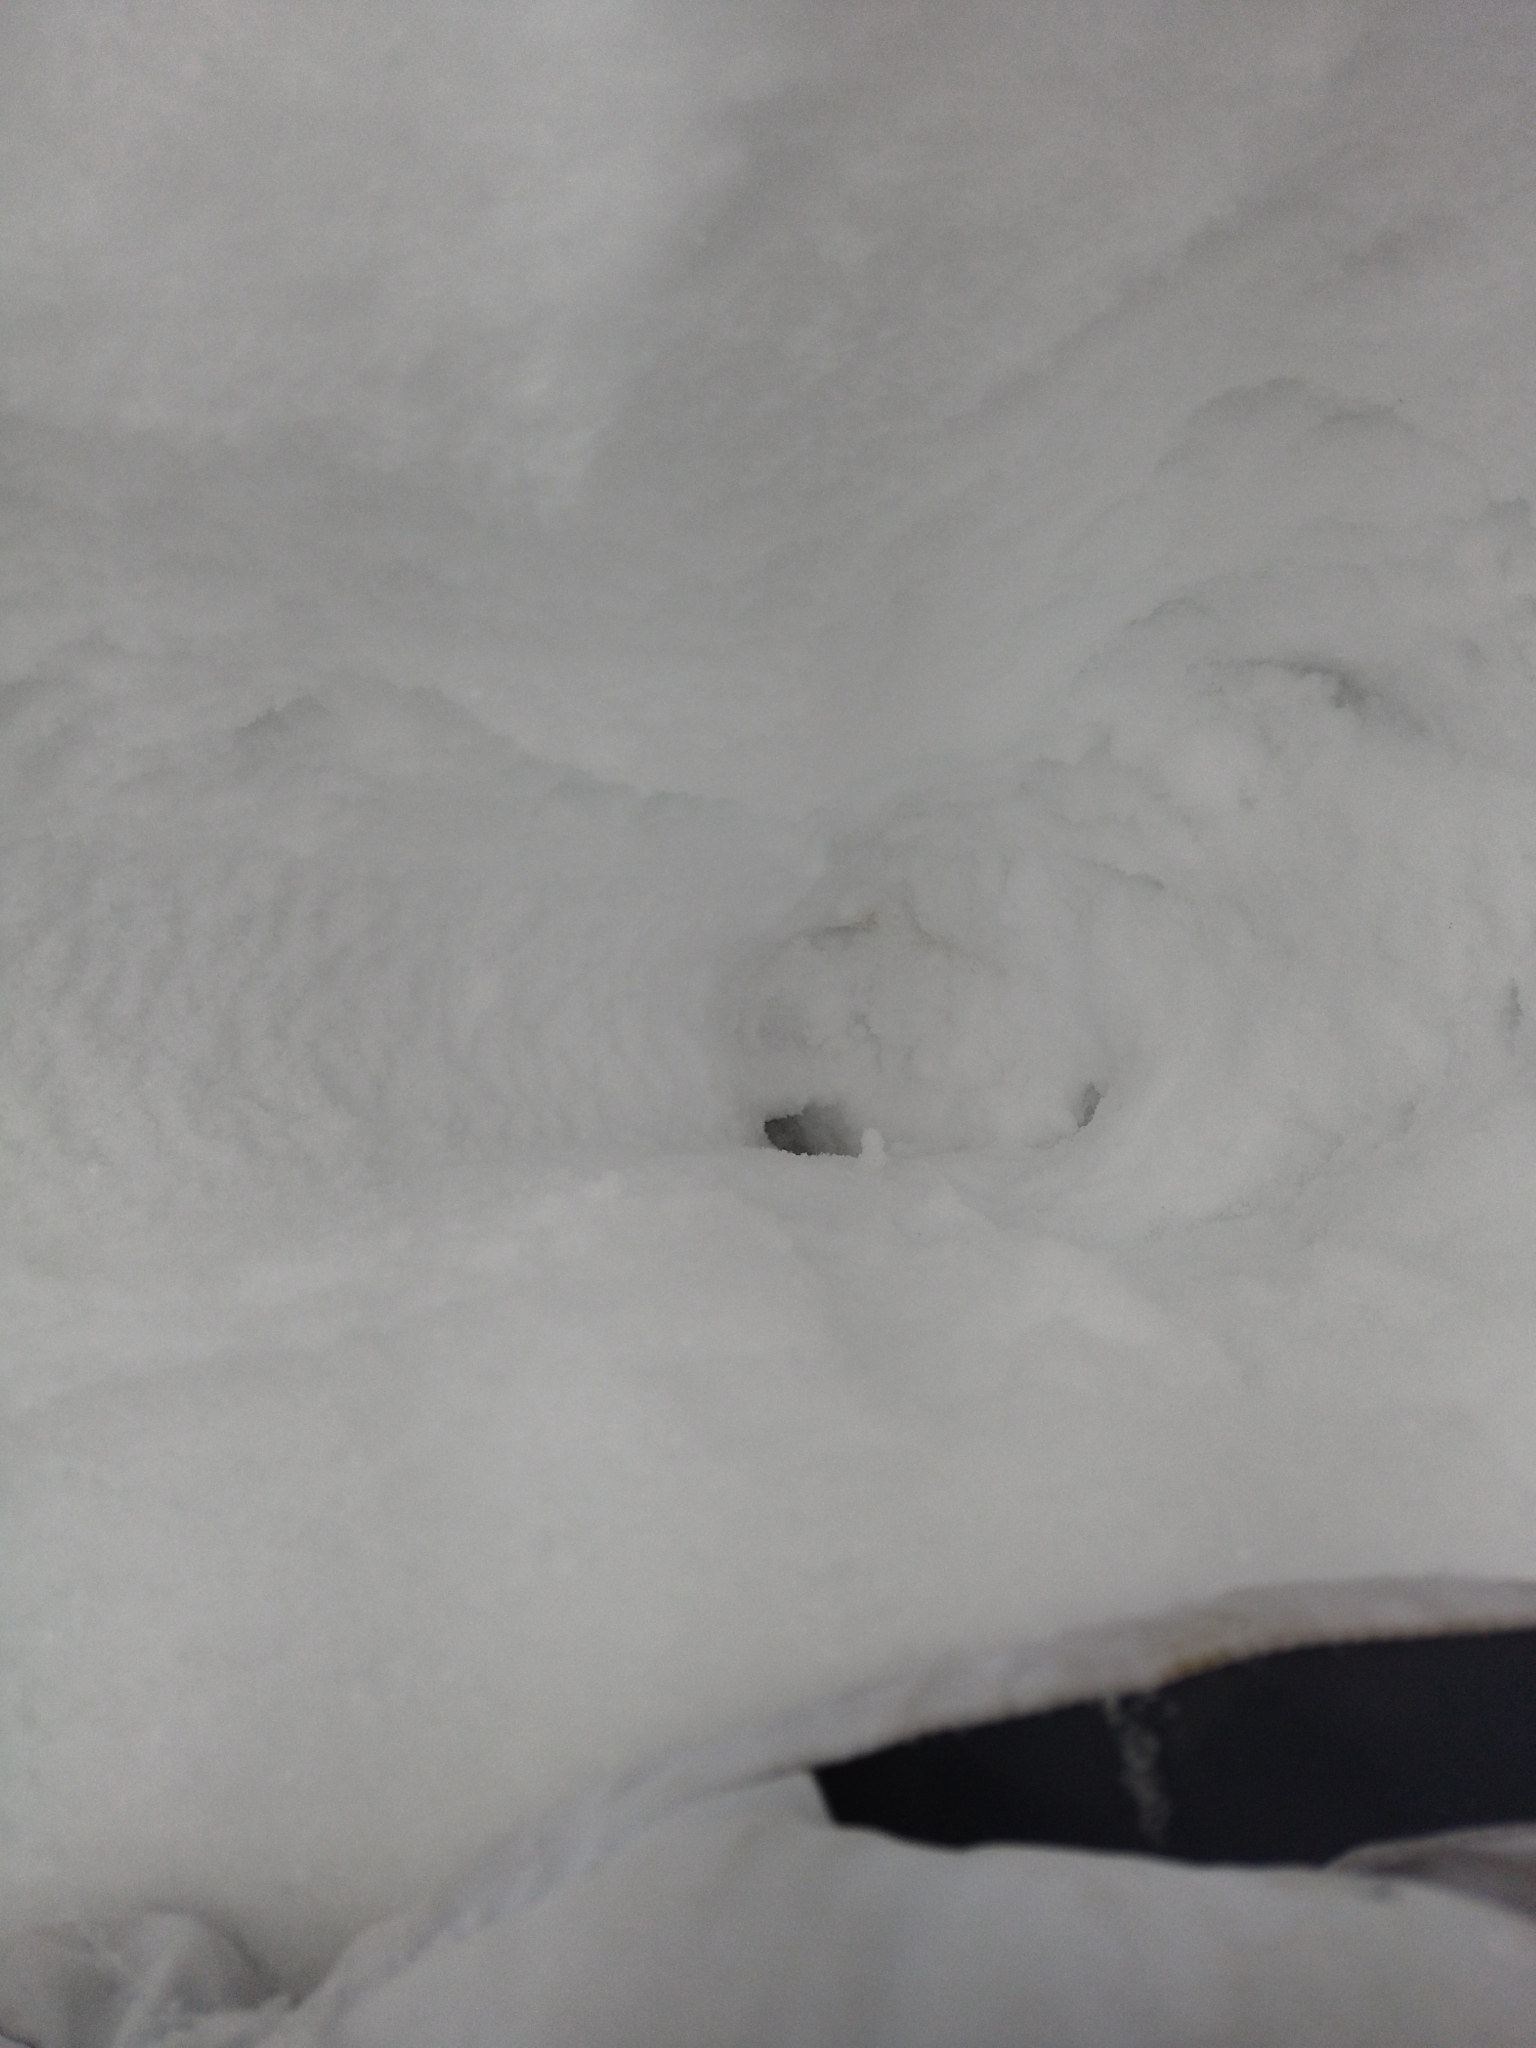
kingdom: Animalia
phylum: Chordata
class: Mammalia
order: Artiodactyla
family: Cervidae
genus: Alces
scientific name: Alces alces
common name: Moose
